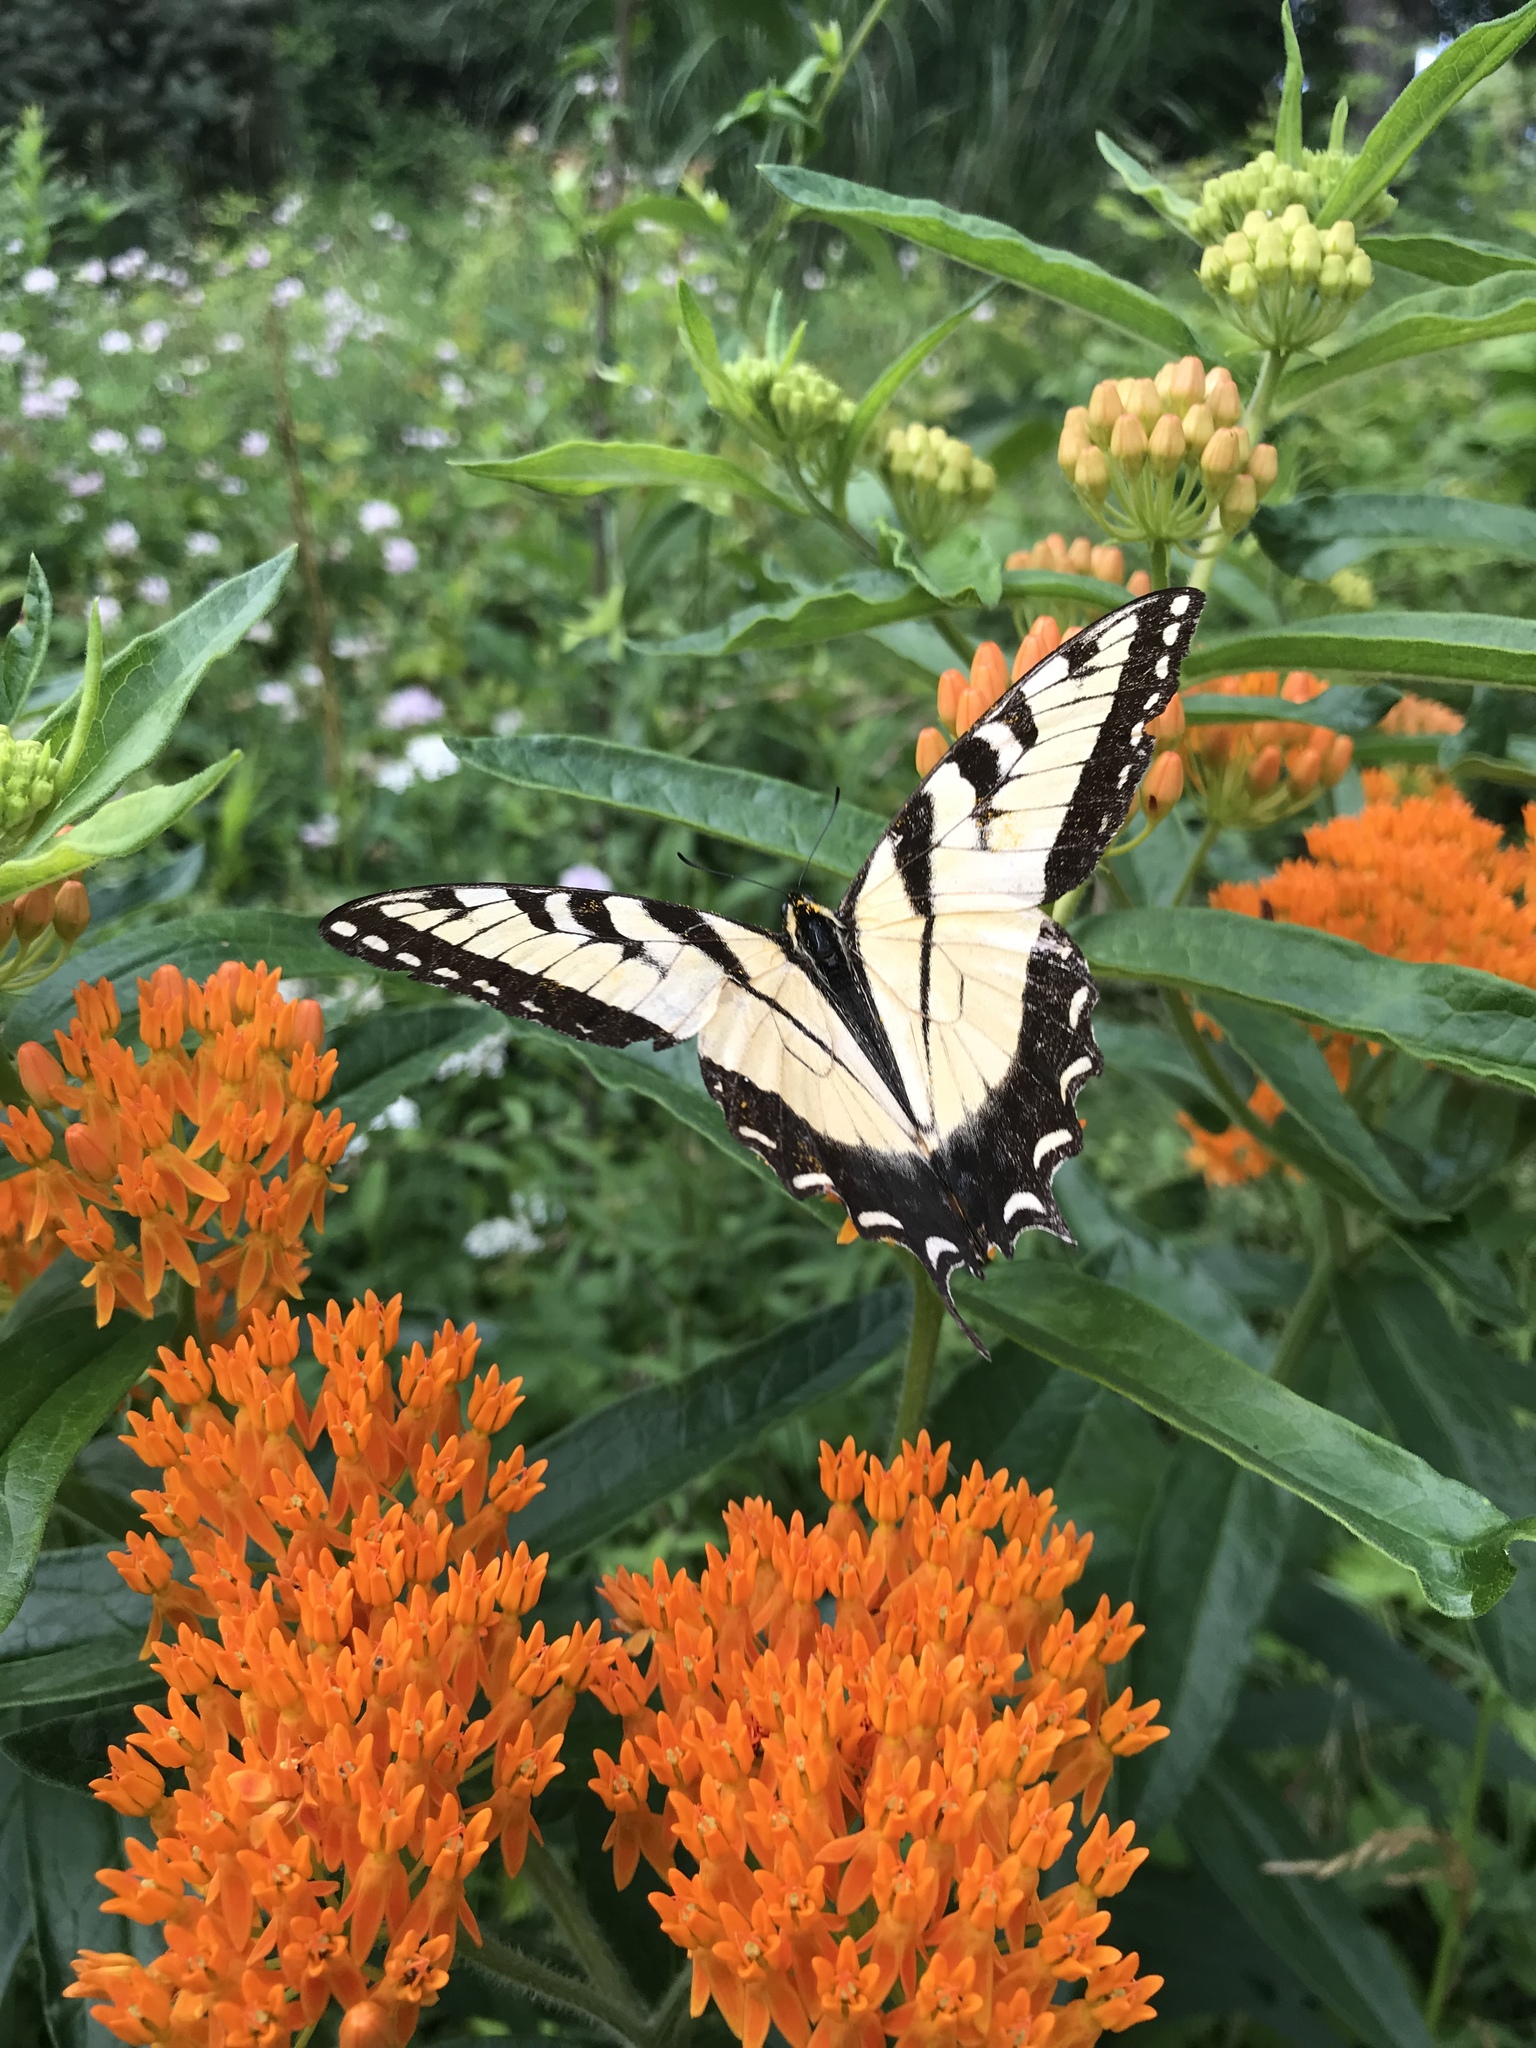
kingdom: Animalia
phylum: Arthropoda
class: Insecta
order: Lepidoptera
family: Papilionidae
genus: Papilio
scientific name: Papilio glaucus
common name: Tiger swallowtail
